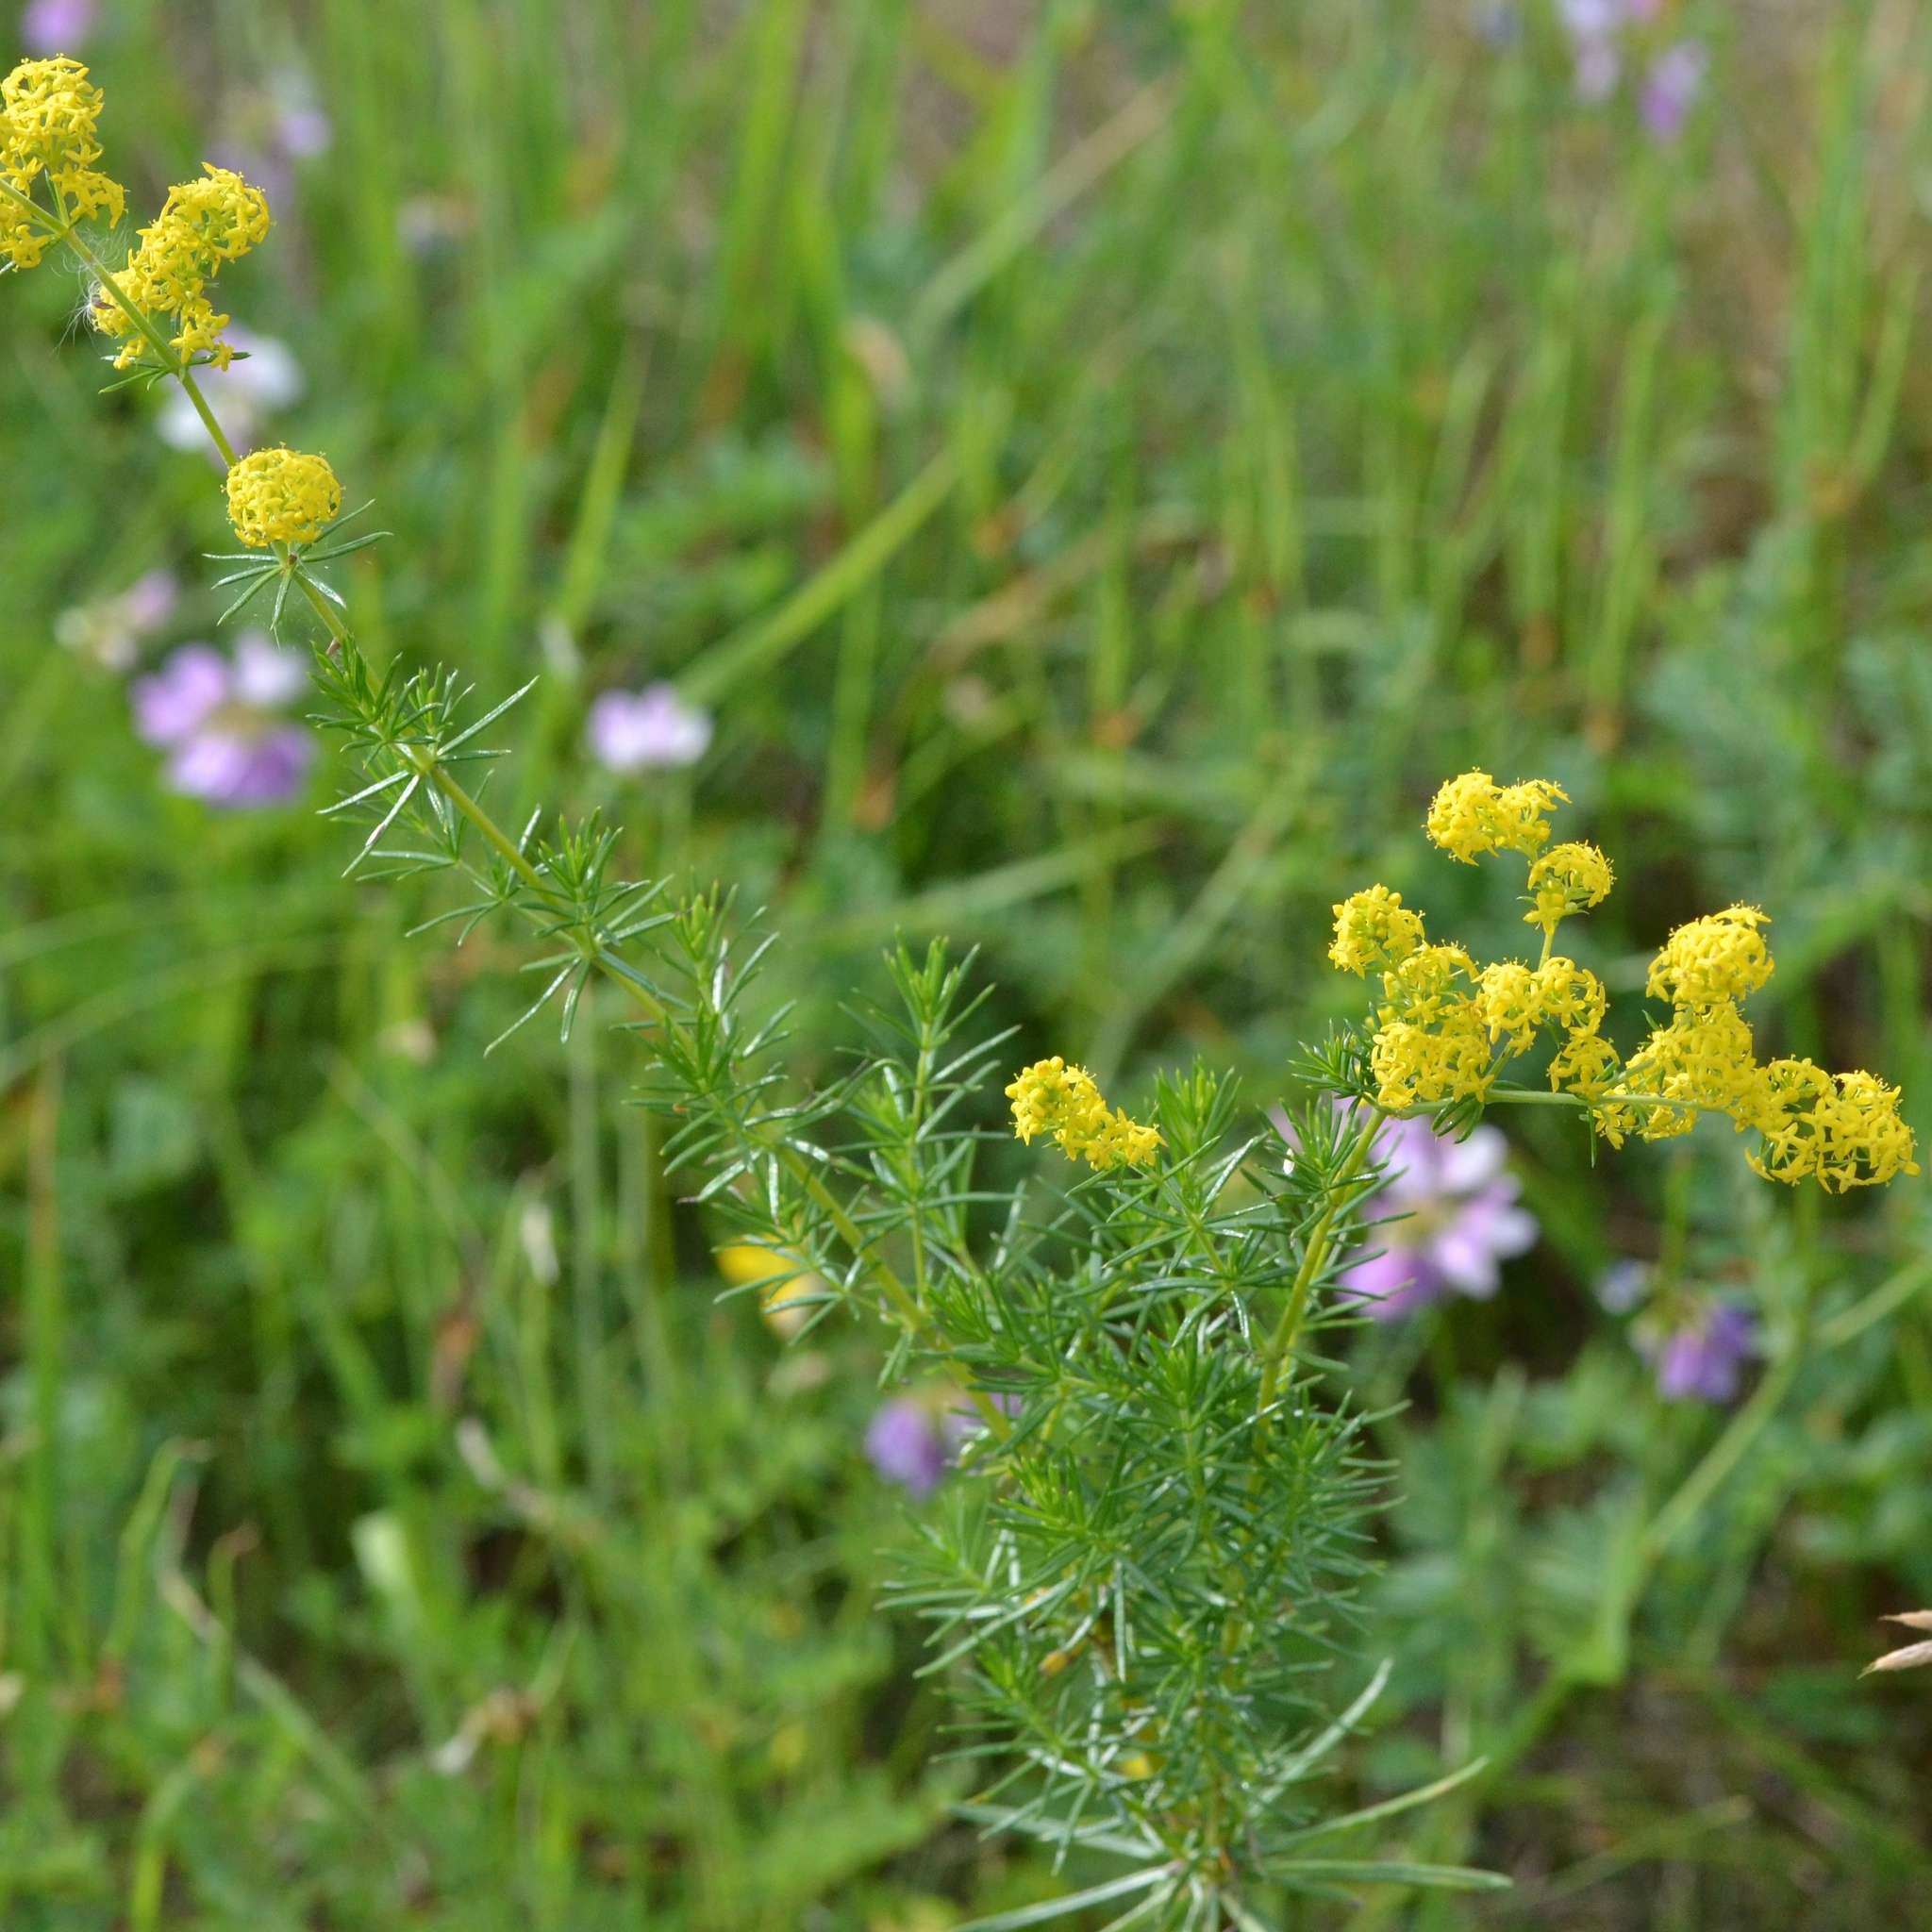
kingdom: Plantae
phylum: Tracheophyta
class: Magnoliopsida
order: Gentianales
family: Rubiaceae
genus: Galium
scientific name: Galium verum
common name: Lady's bedstraw
